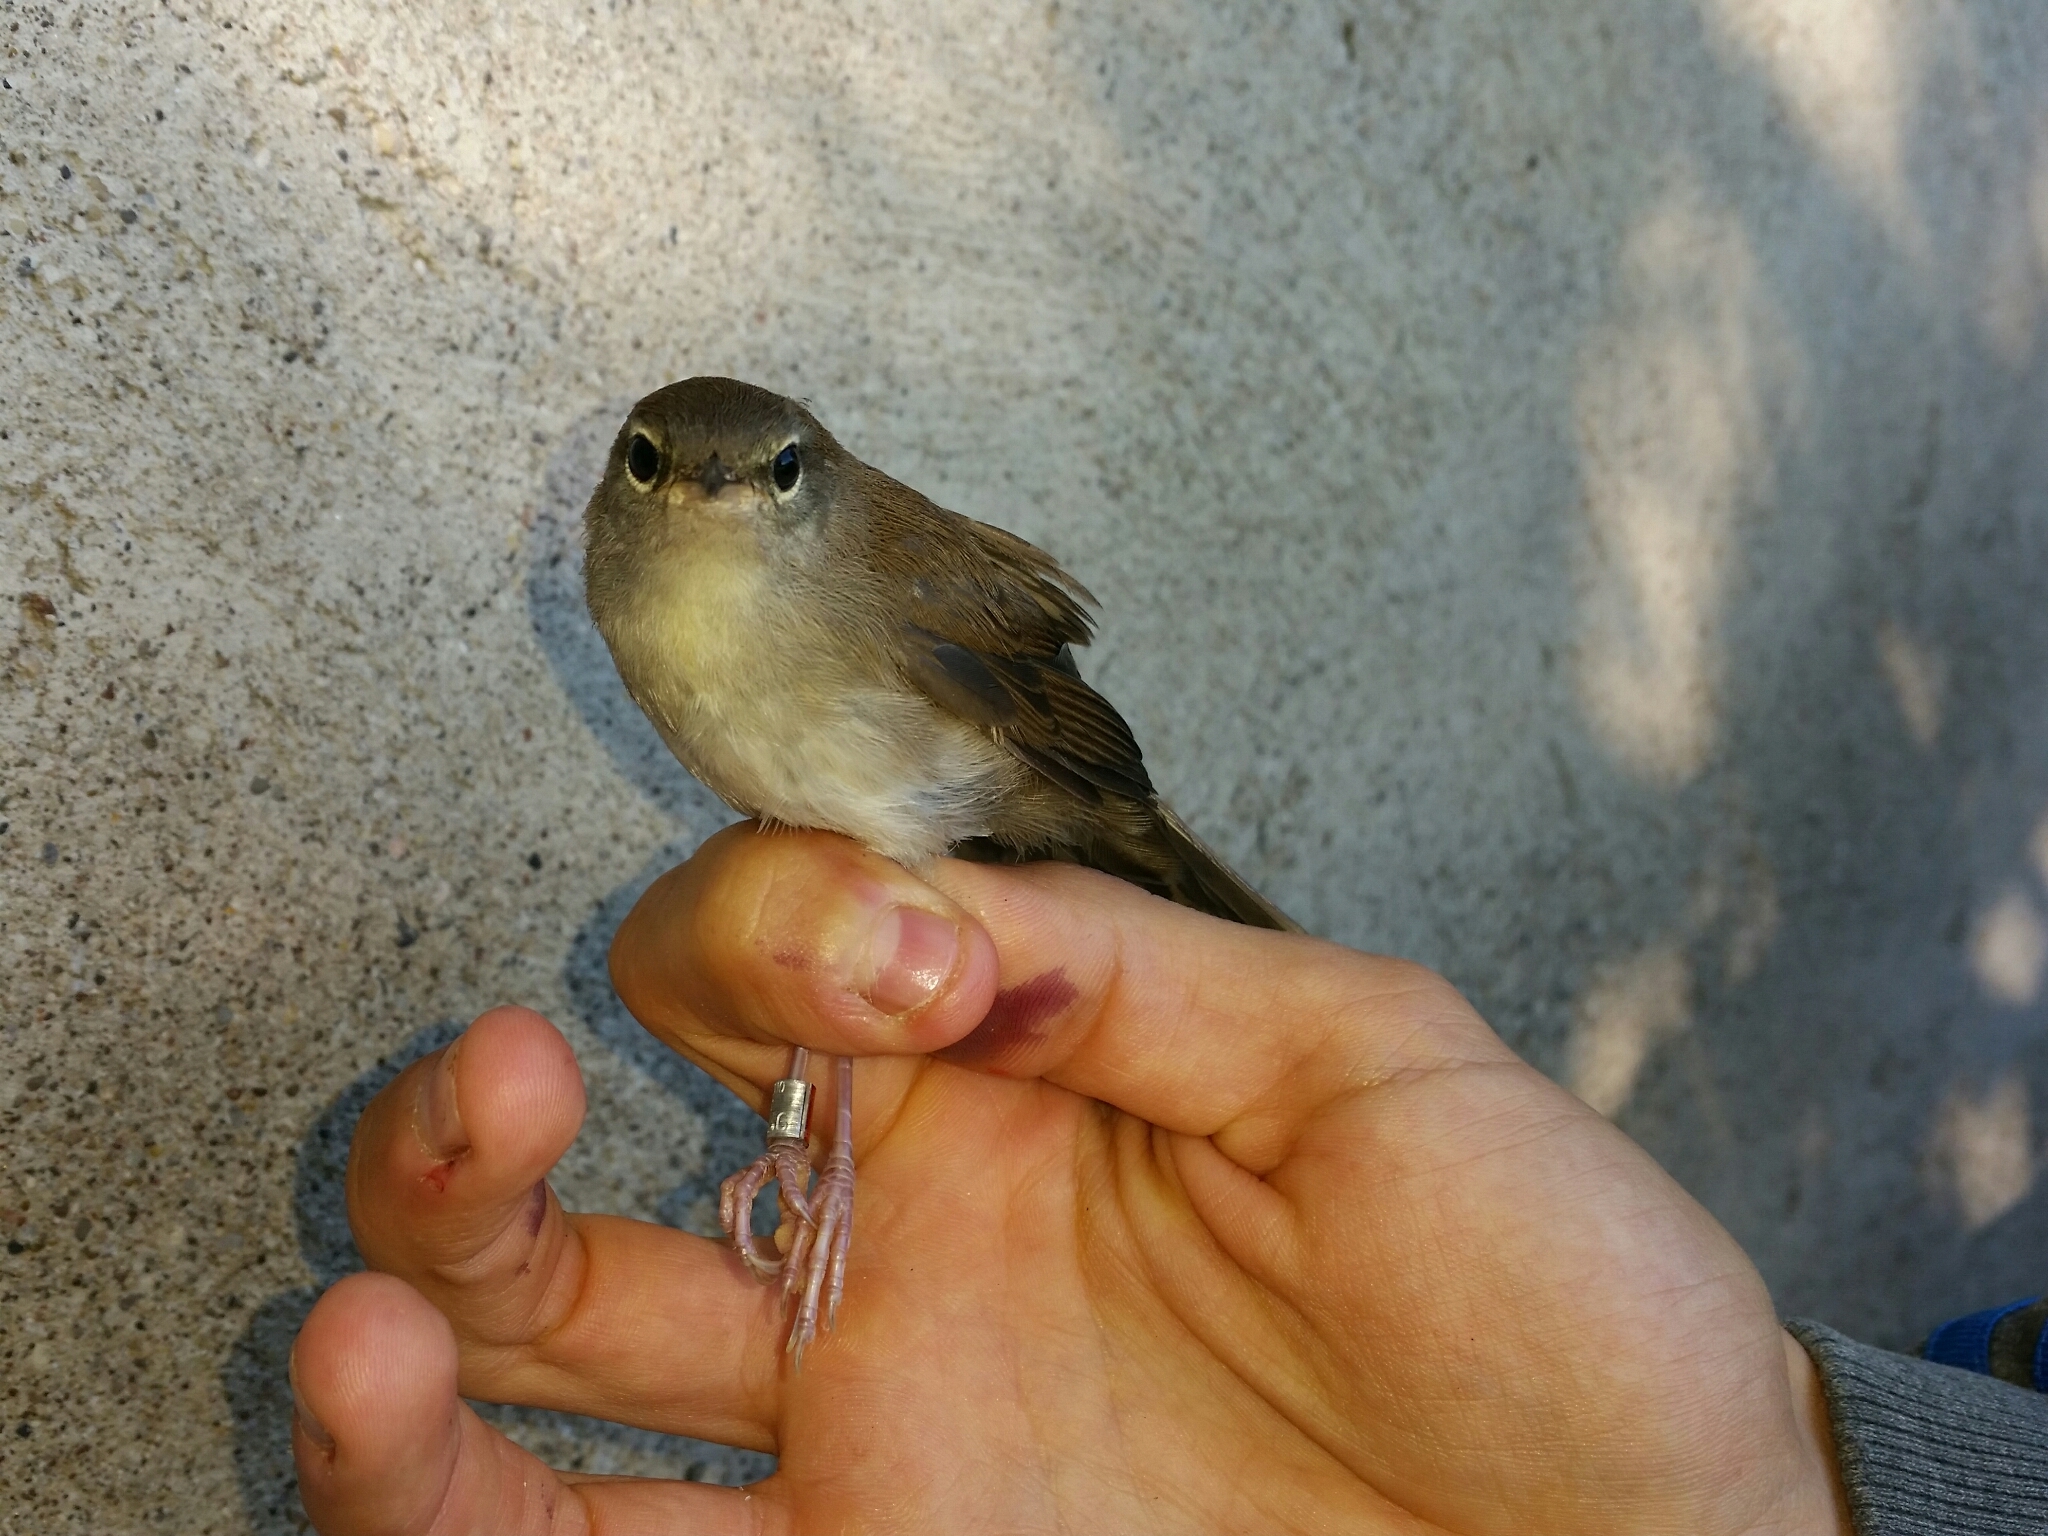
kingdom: Animalia
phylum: Chordata
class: Aves
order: Passeriformes
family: Acrocephalidae
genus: Acrocephalus
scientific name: Acrocephalus scirpaceus
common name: Eurasian reed warbler
